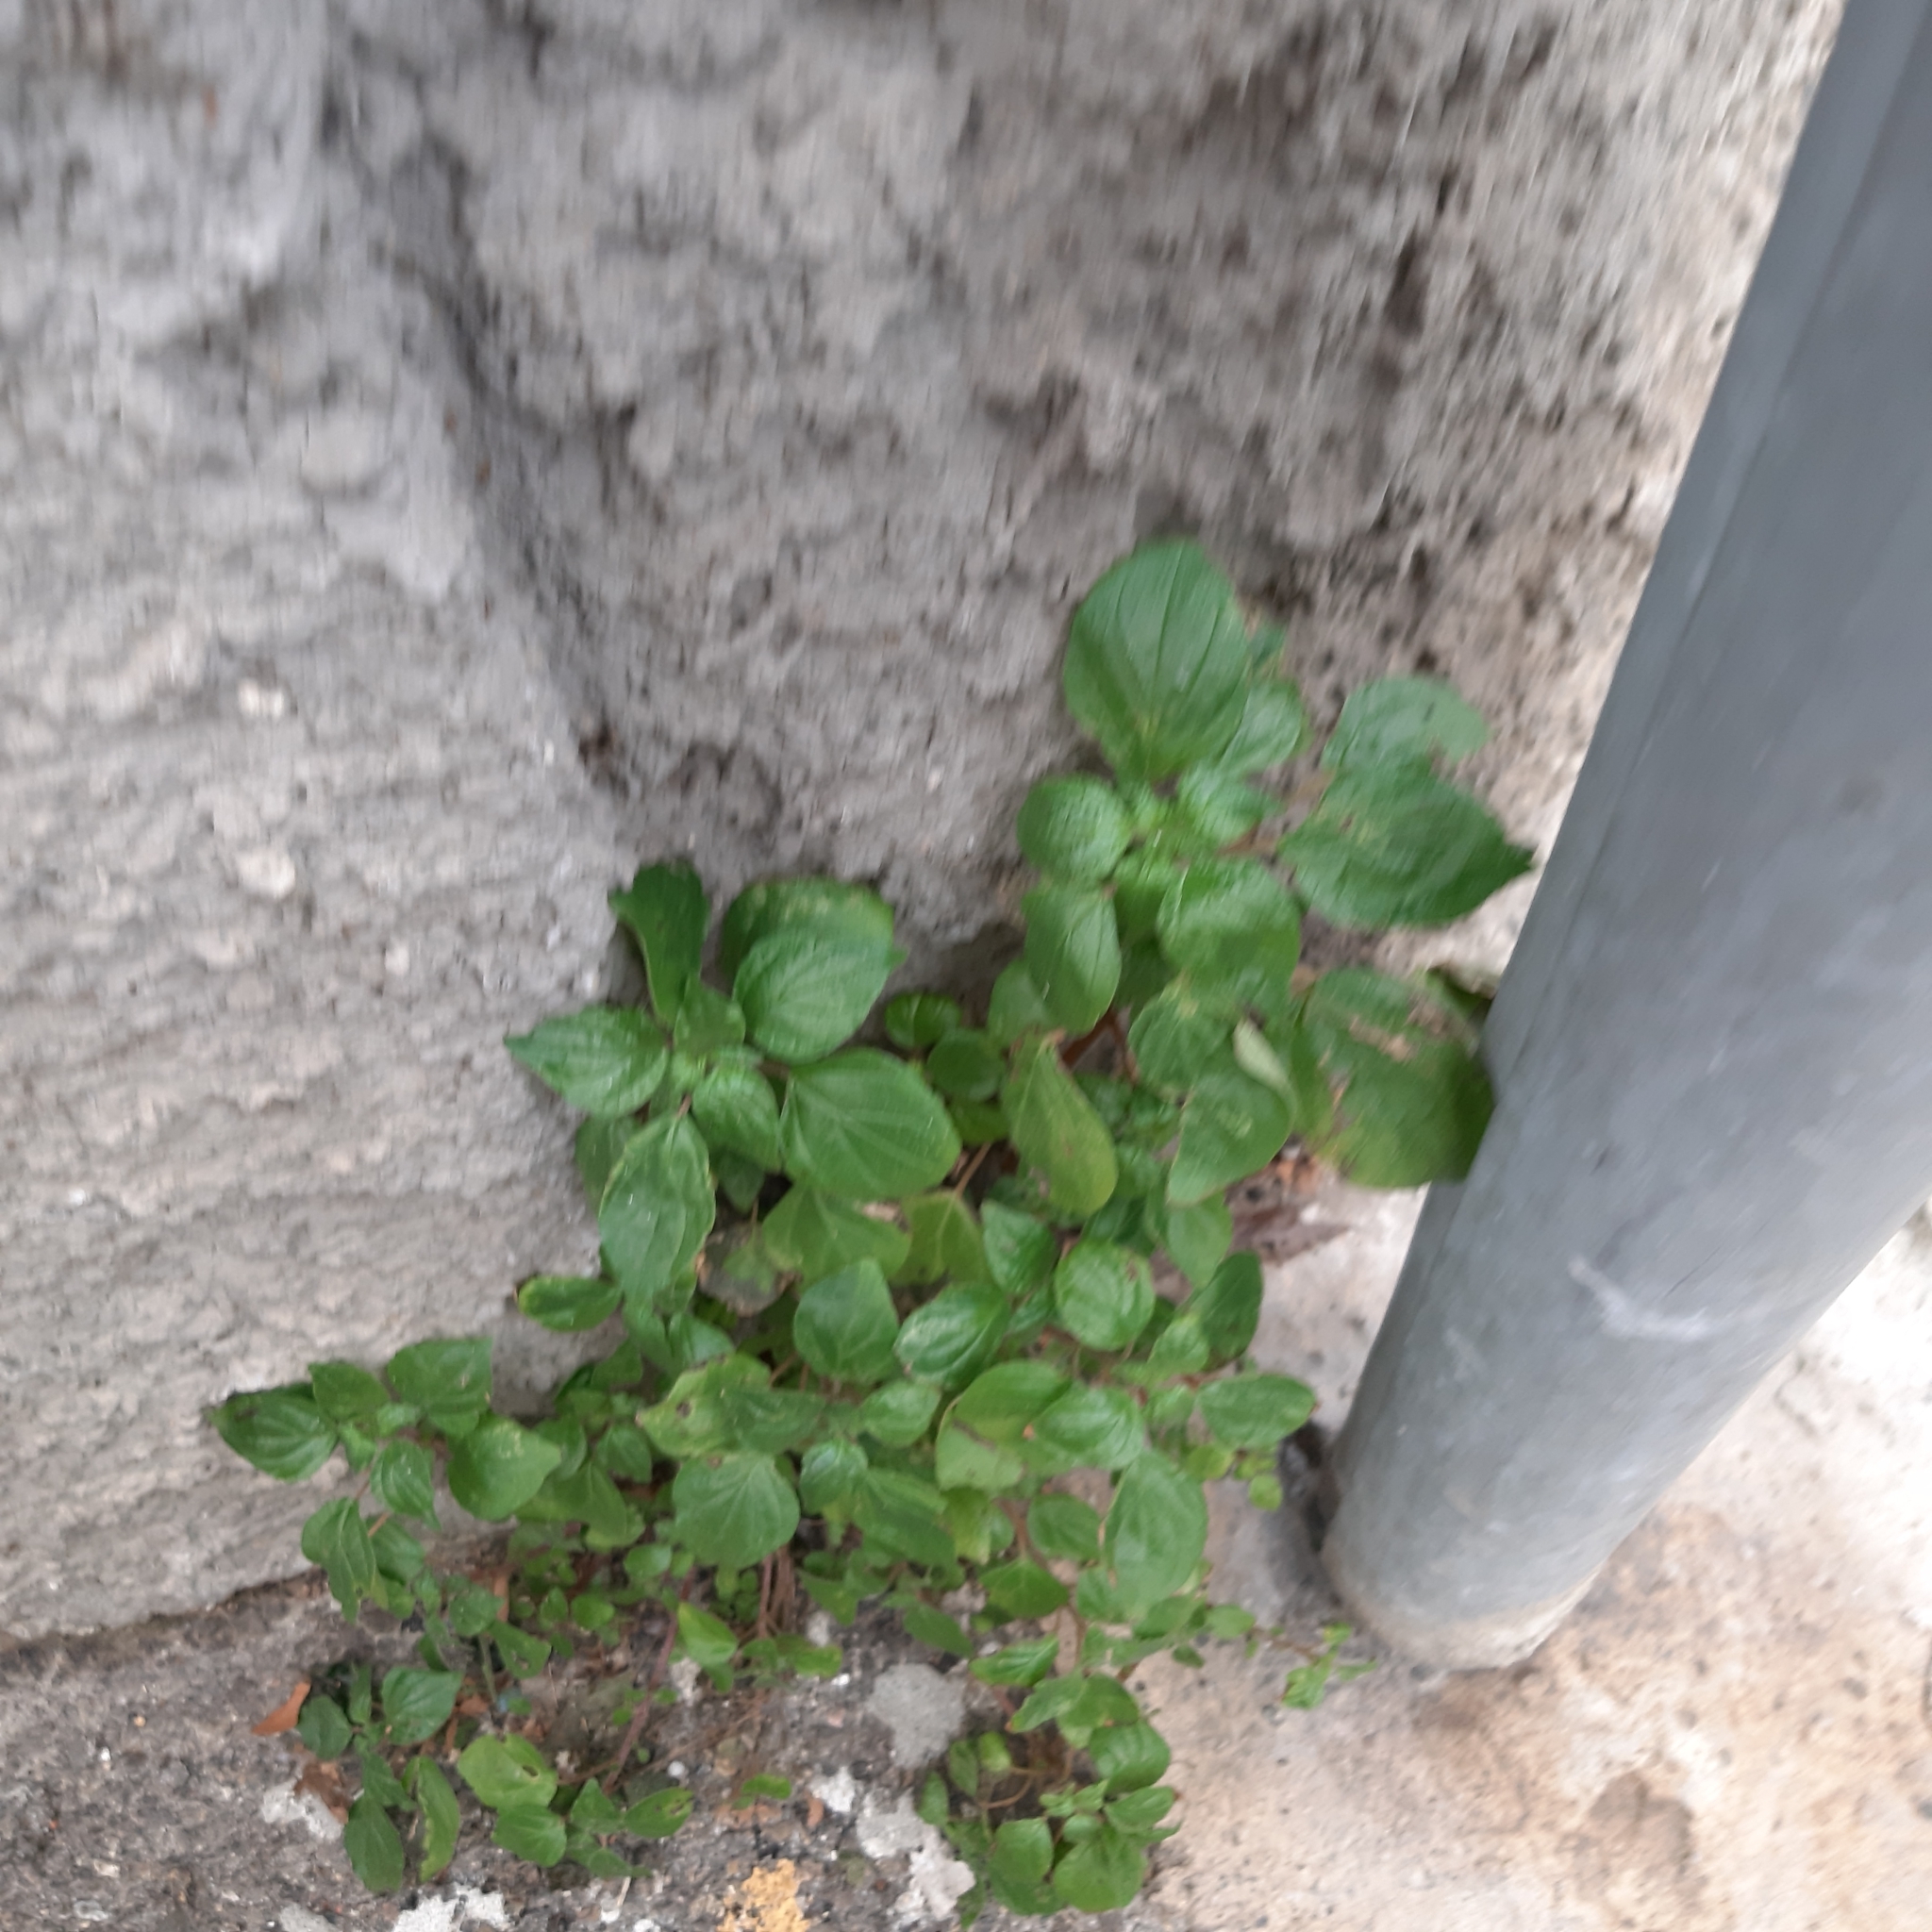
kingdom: Plantae
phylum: Tracheophyta
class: Magnoliopsida
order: Rosales
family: Urticaceae
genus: Parietaria
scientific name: Parietaria judaica
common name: Pellitory-of-the-wall
